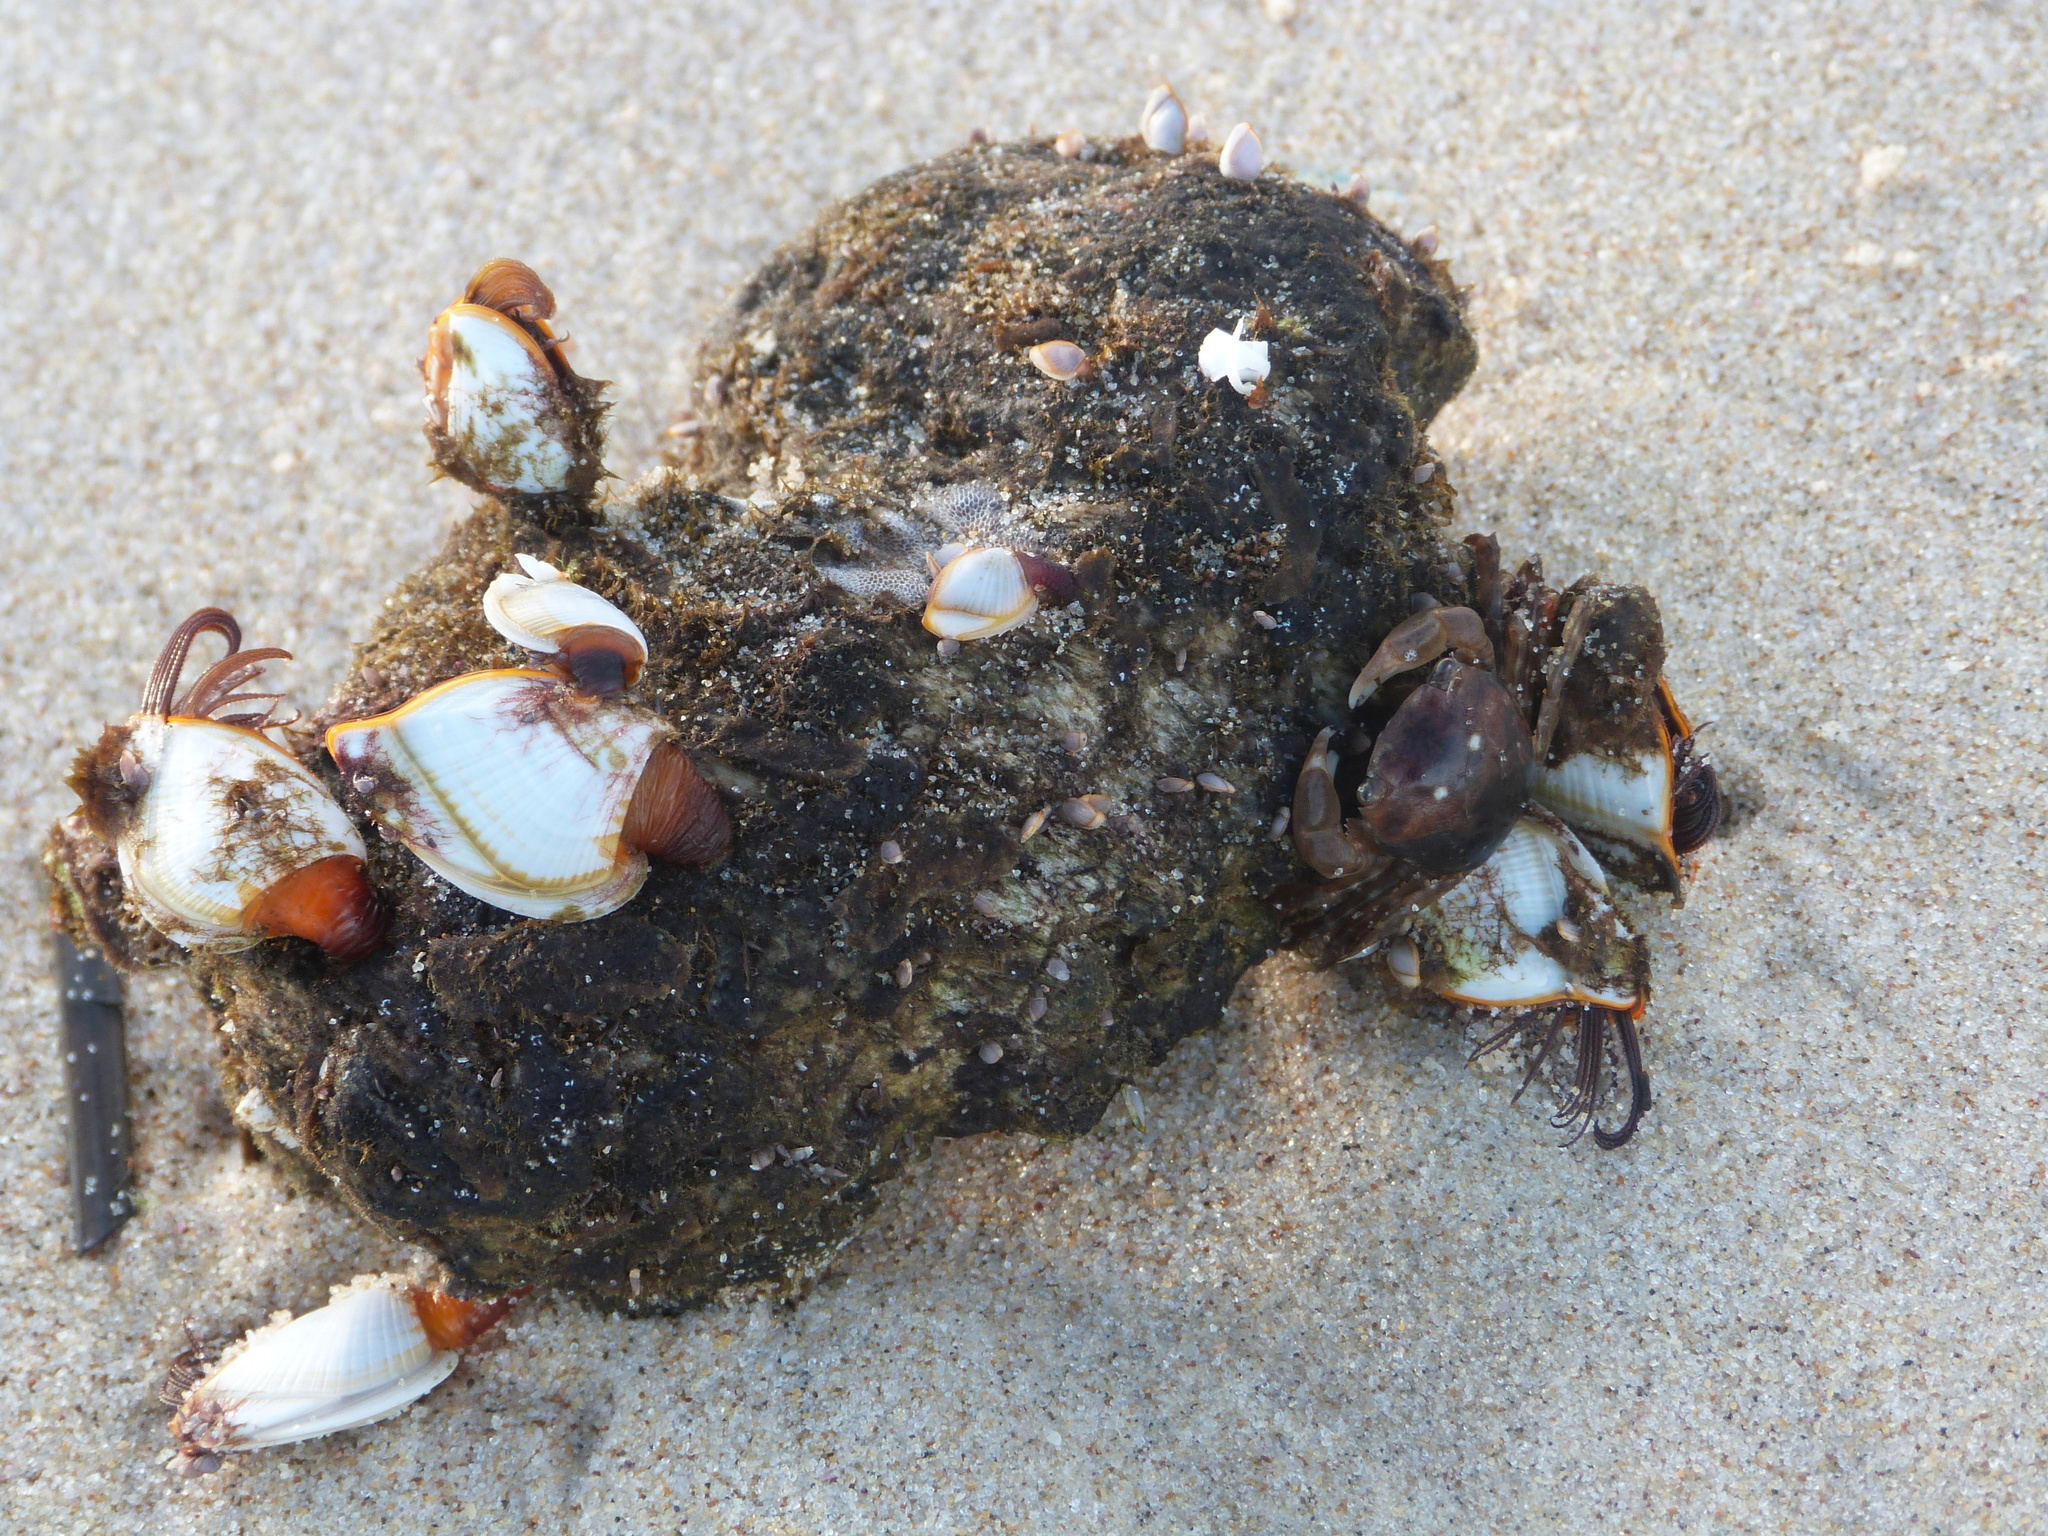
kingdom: Animalia
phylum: Arthropoda
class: Maxillopoda
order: Pedunculata
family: Lepadidae
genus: Lepas
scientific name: Lepas anserifera
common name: Goose barnacle
